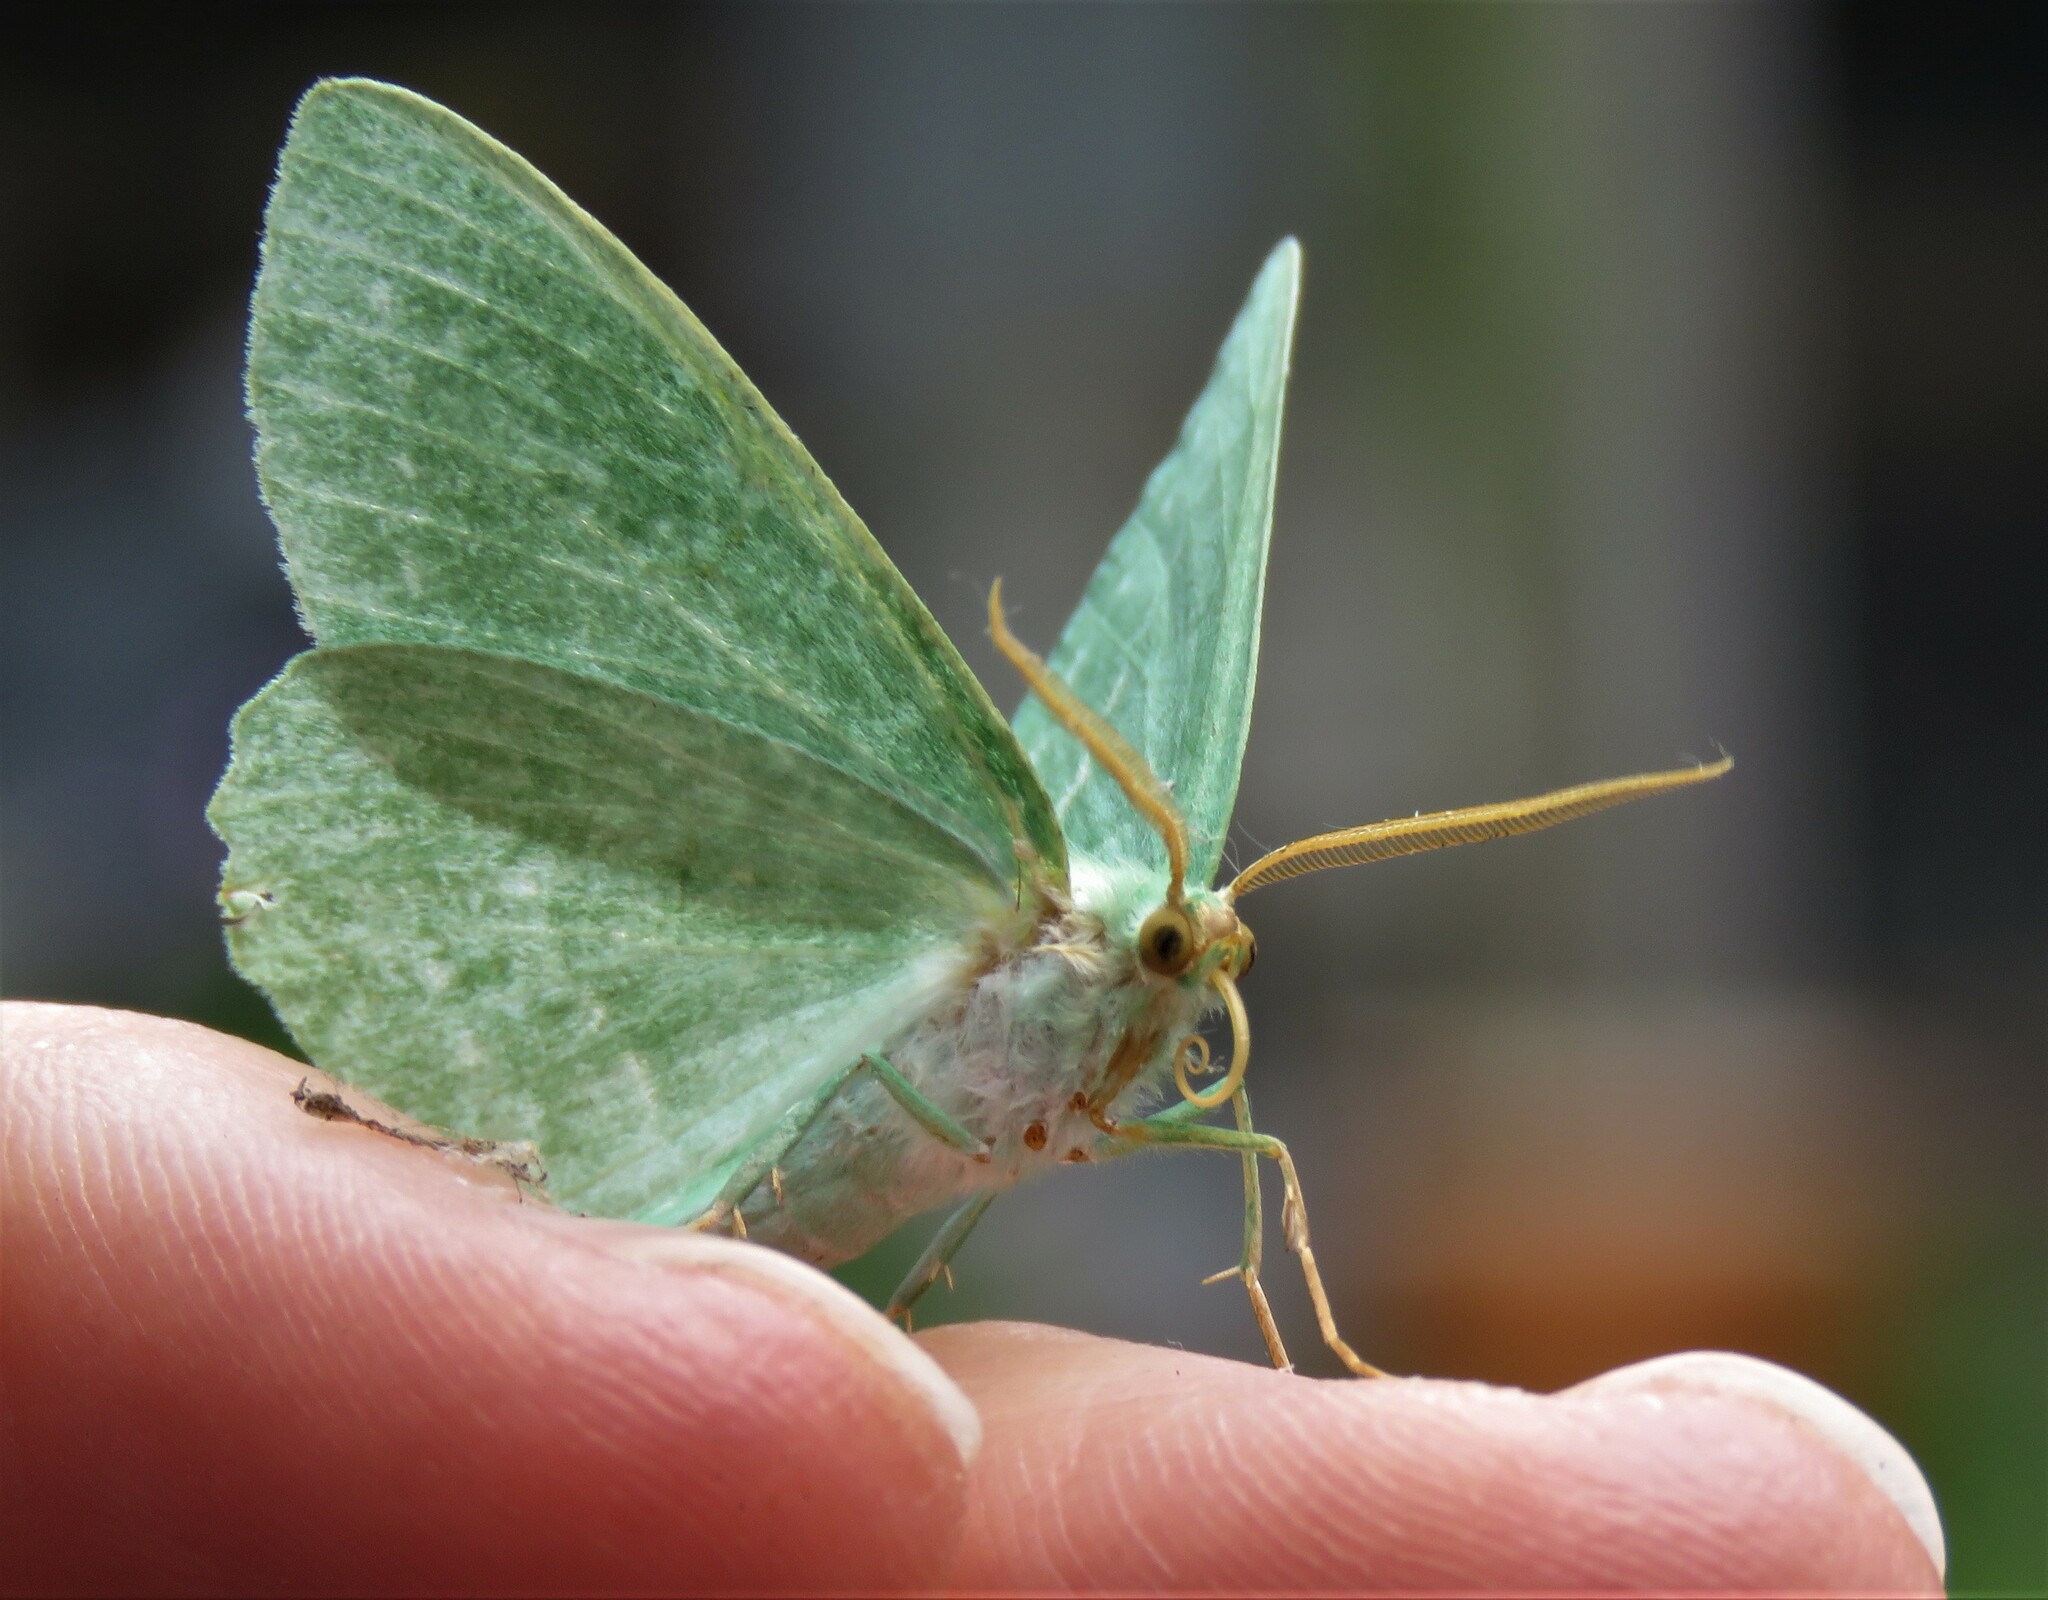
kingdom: Animalia
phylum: Arthropoda
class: Insecta
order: Lepidoptera
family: Geometridae
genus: Geometra
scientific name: Geometra papilionaria
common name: Large emerald
